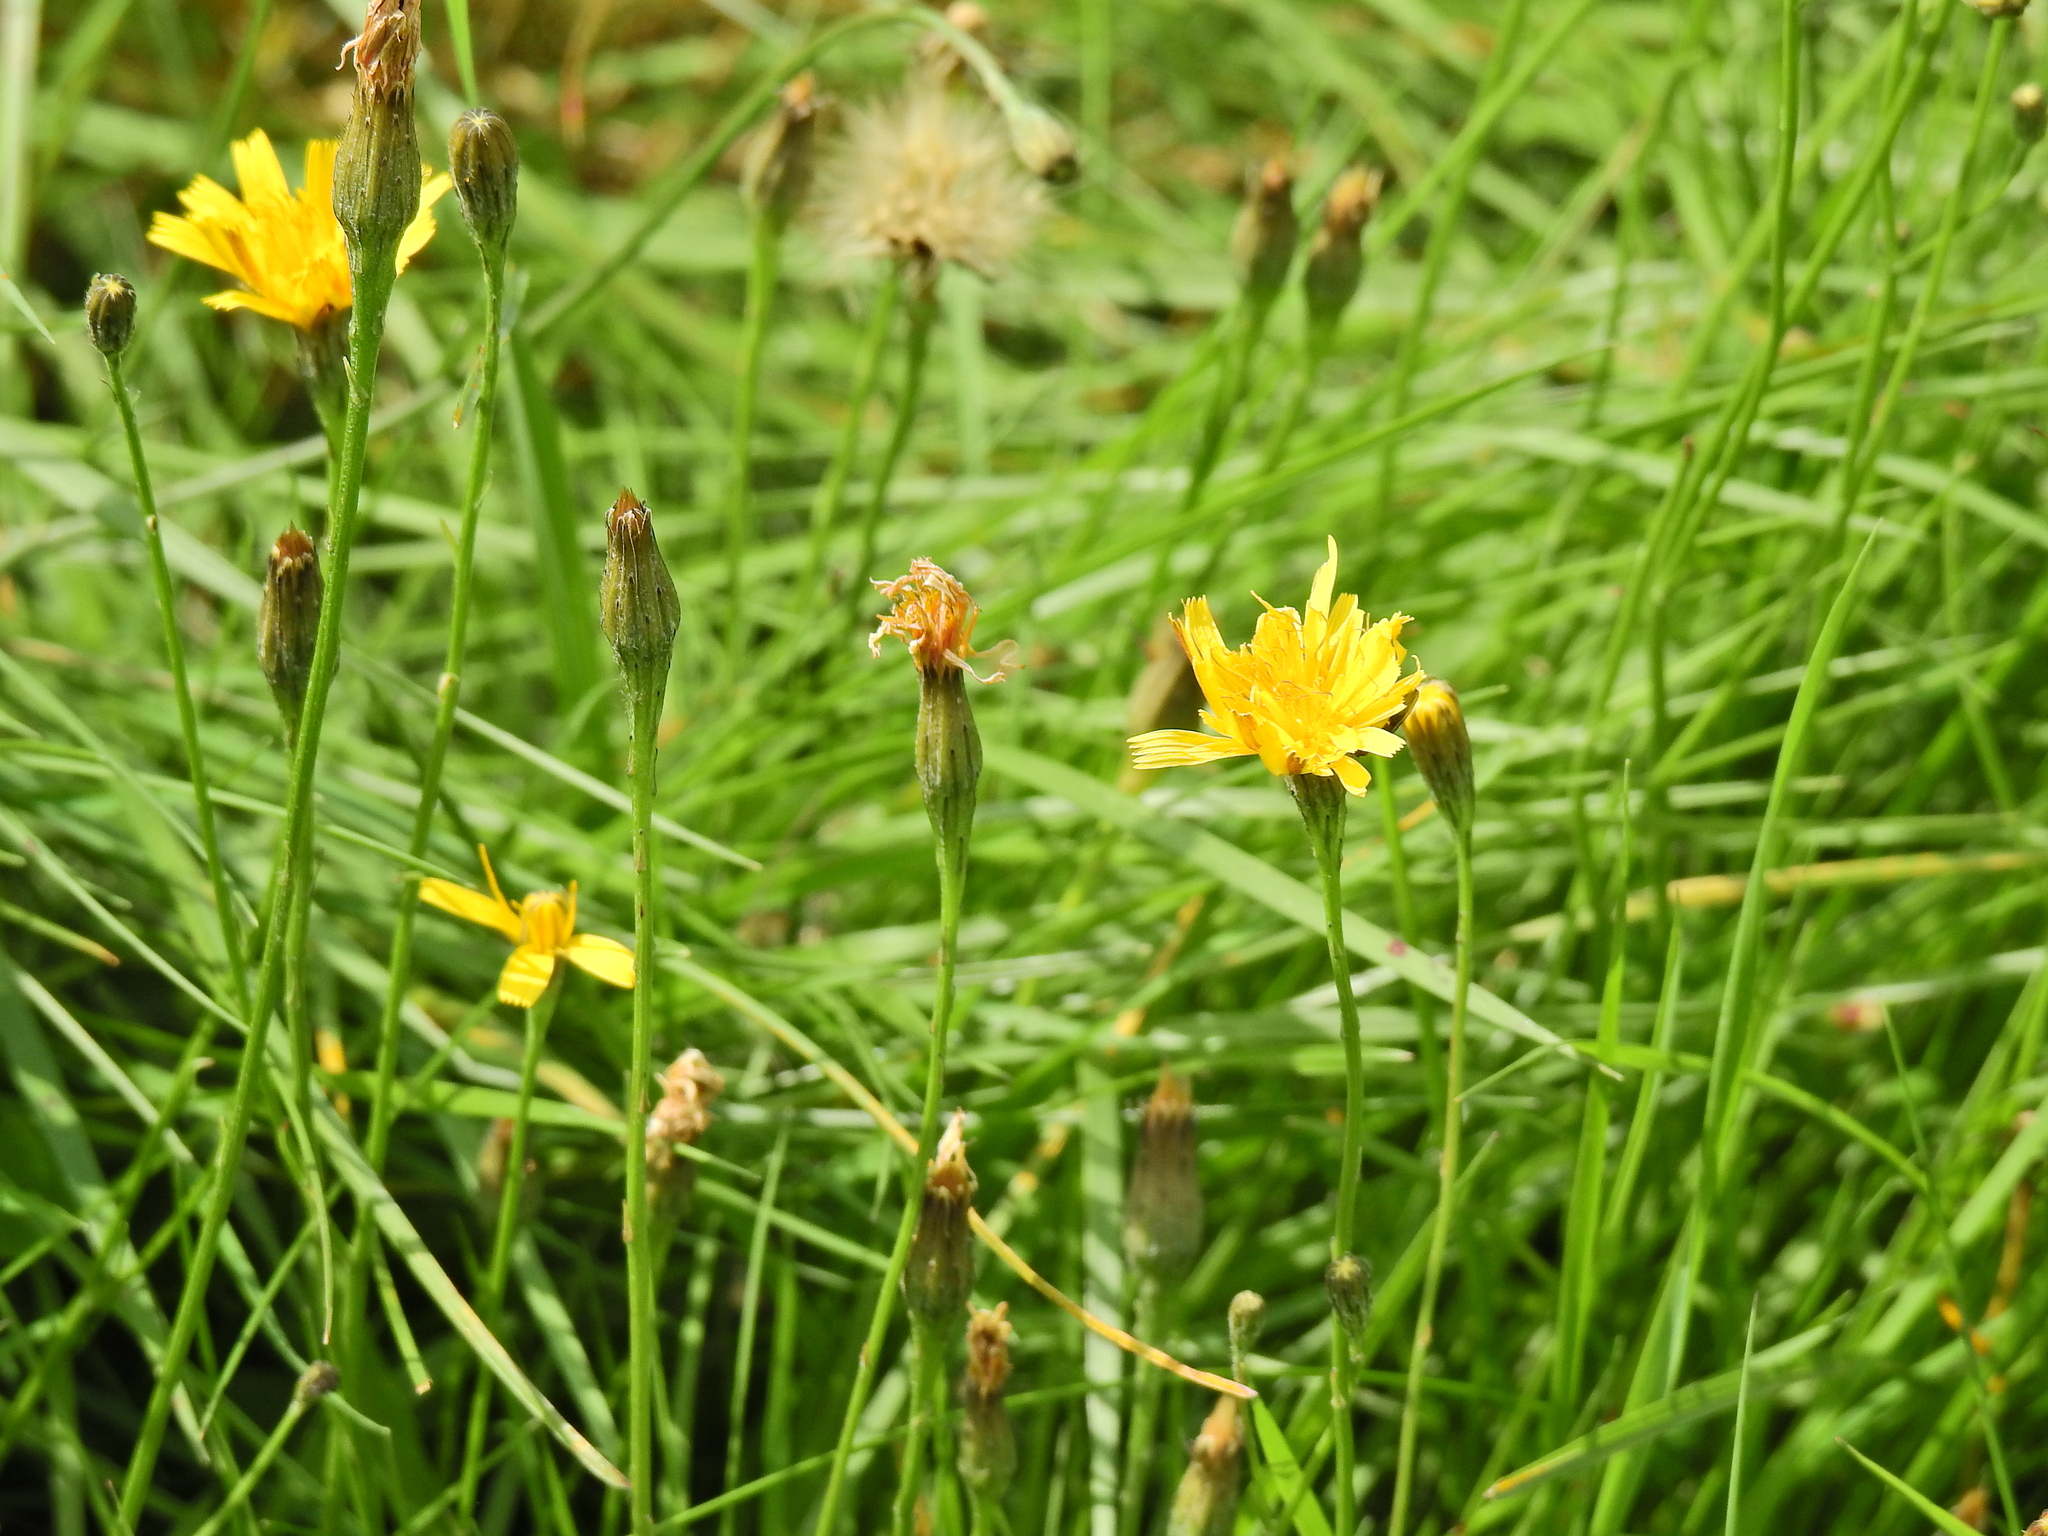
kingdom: Plantae
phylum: Tracheophyta
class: Magnoliopsida
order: Asterales
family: Asteraceae
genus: Scorzoneroides
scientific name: Scorzoneroides autumnalis
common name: Autumn hawkbit
